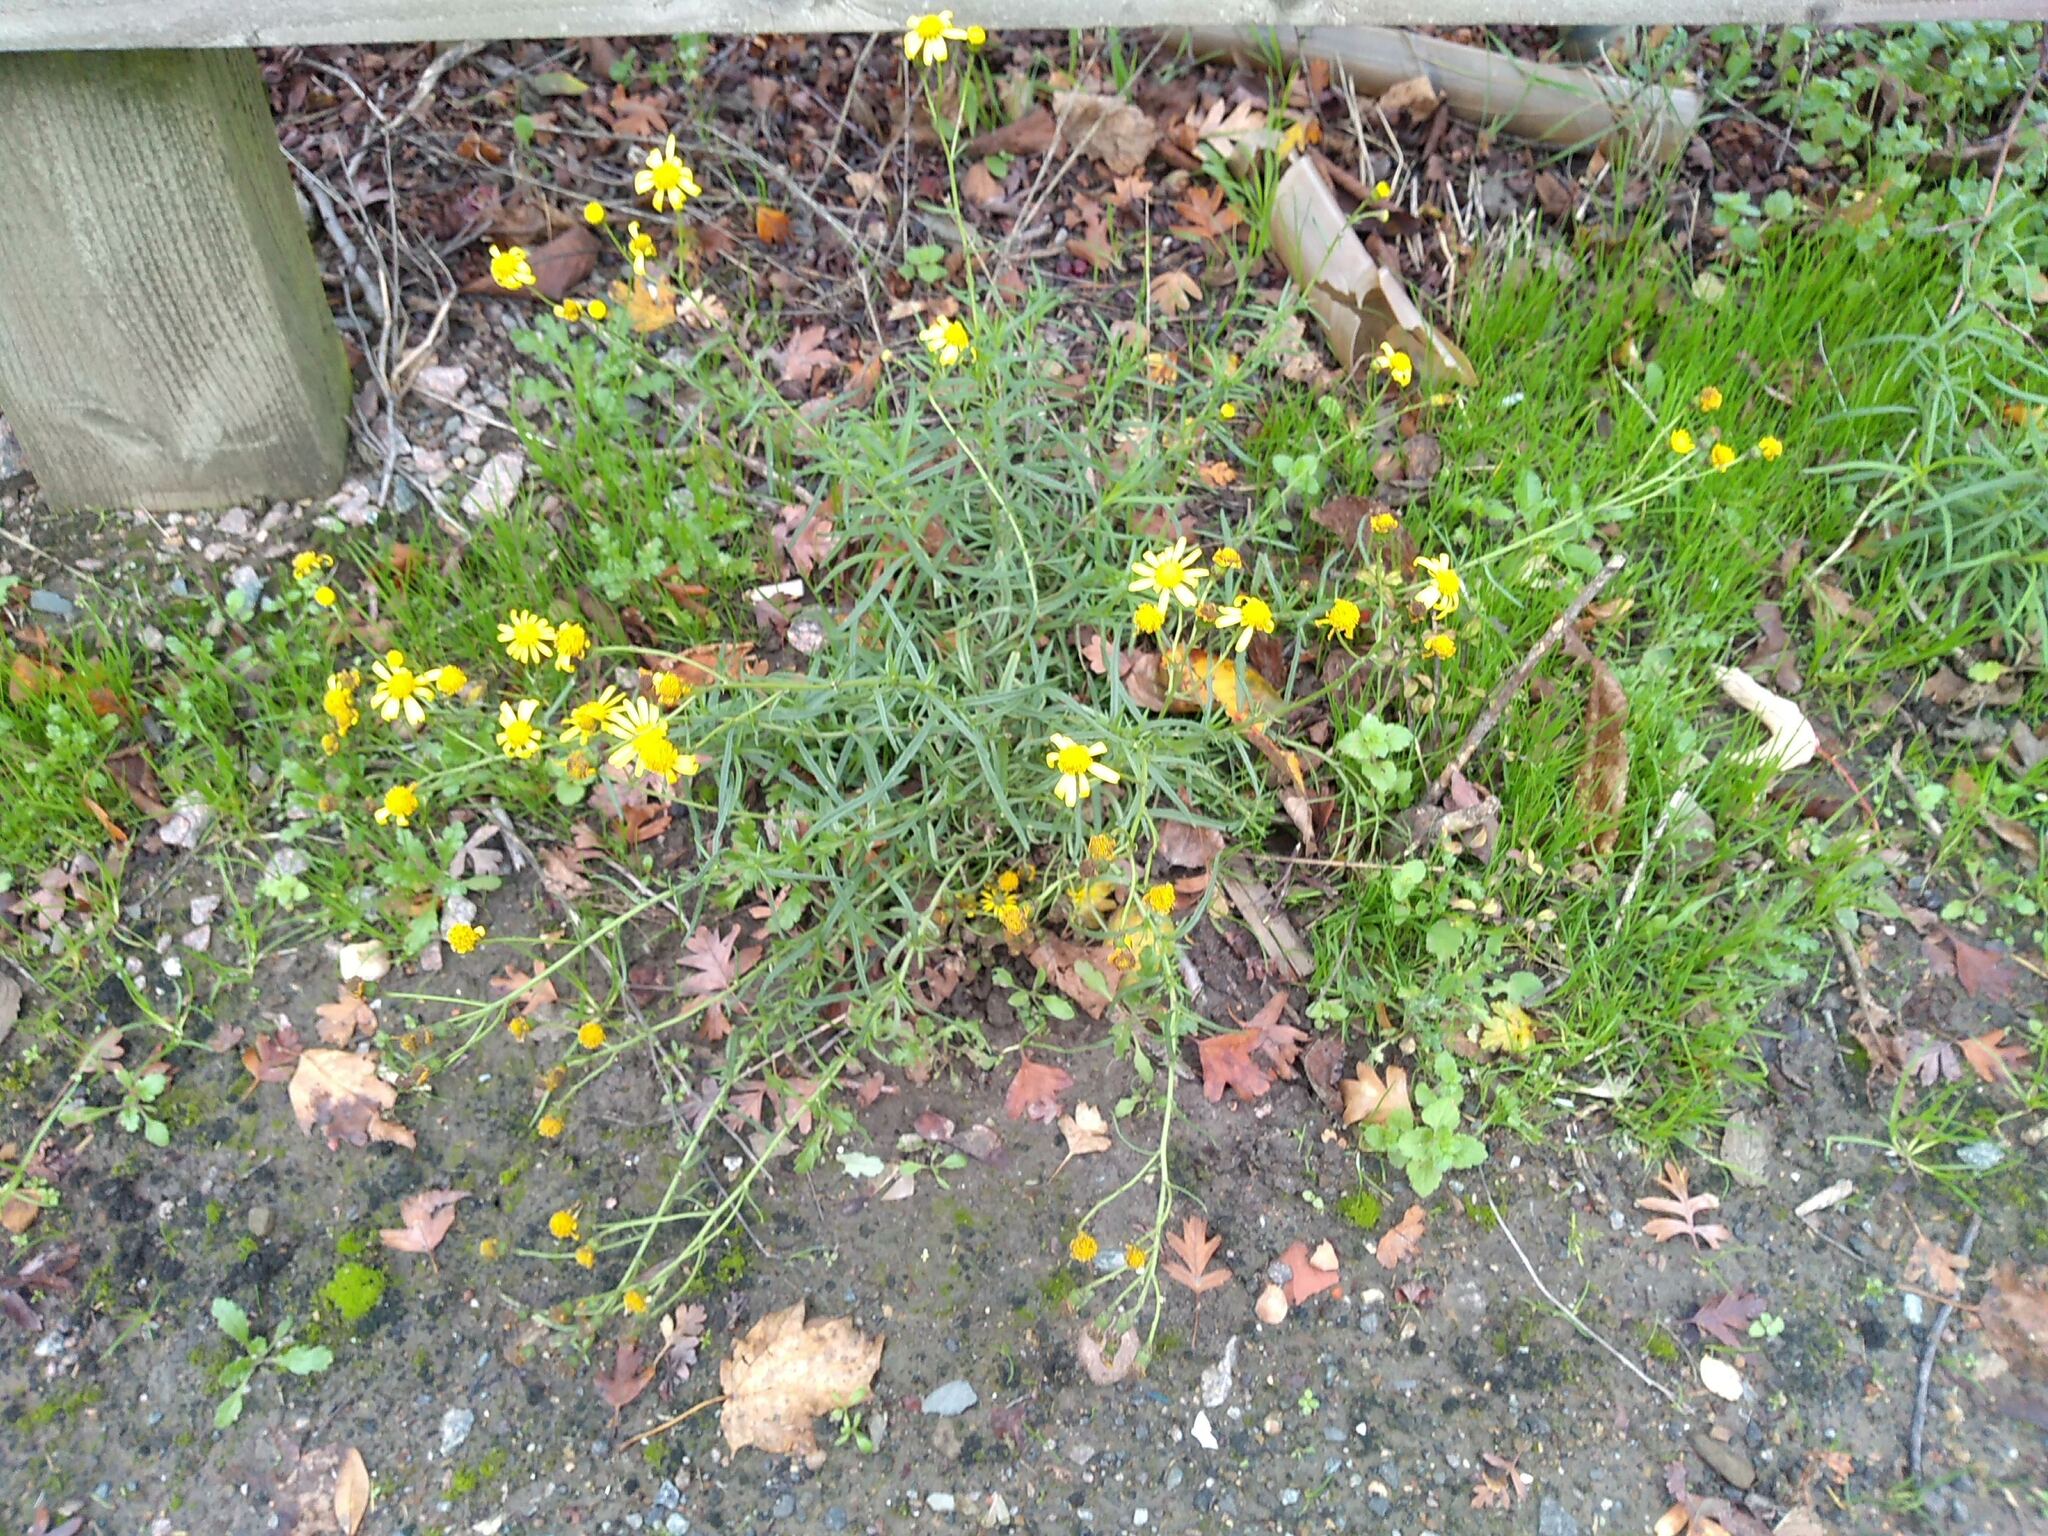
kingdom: Plantae
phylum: Tracheophyta
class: Magnoliopsida
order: Asterales
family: Asteraceae
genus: Senecio
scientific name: Senecio inaequidens
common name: Narrow-leaved ragwort
